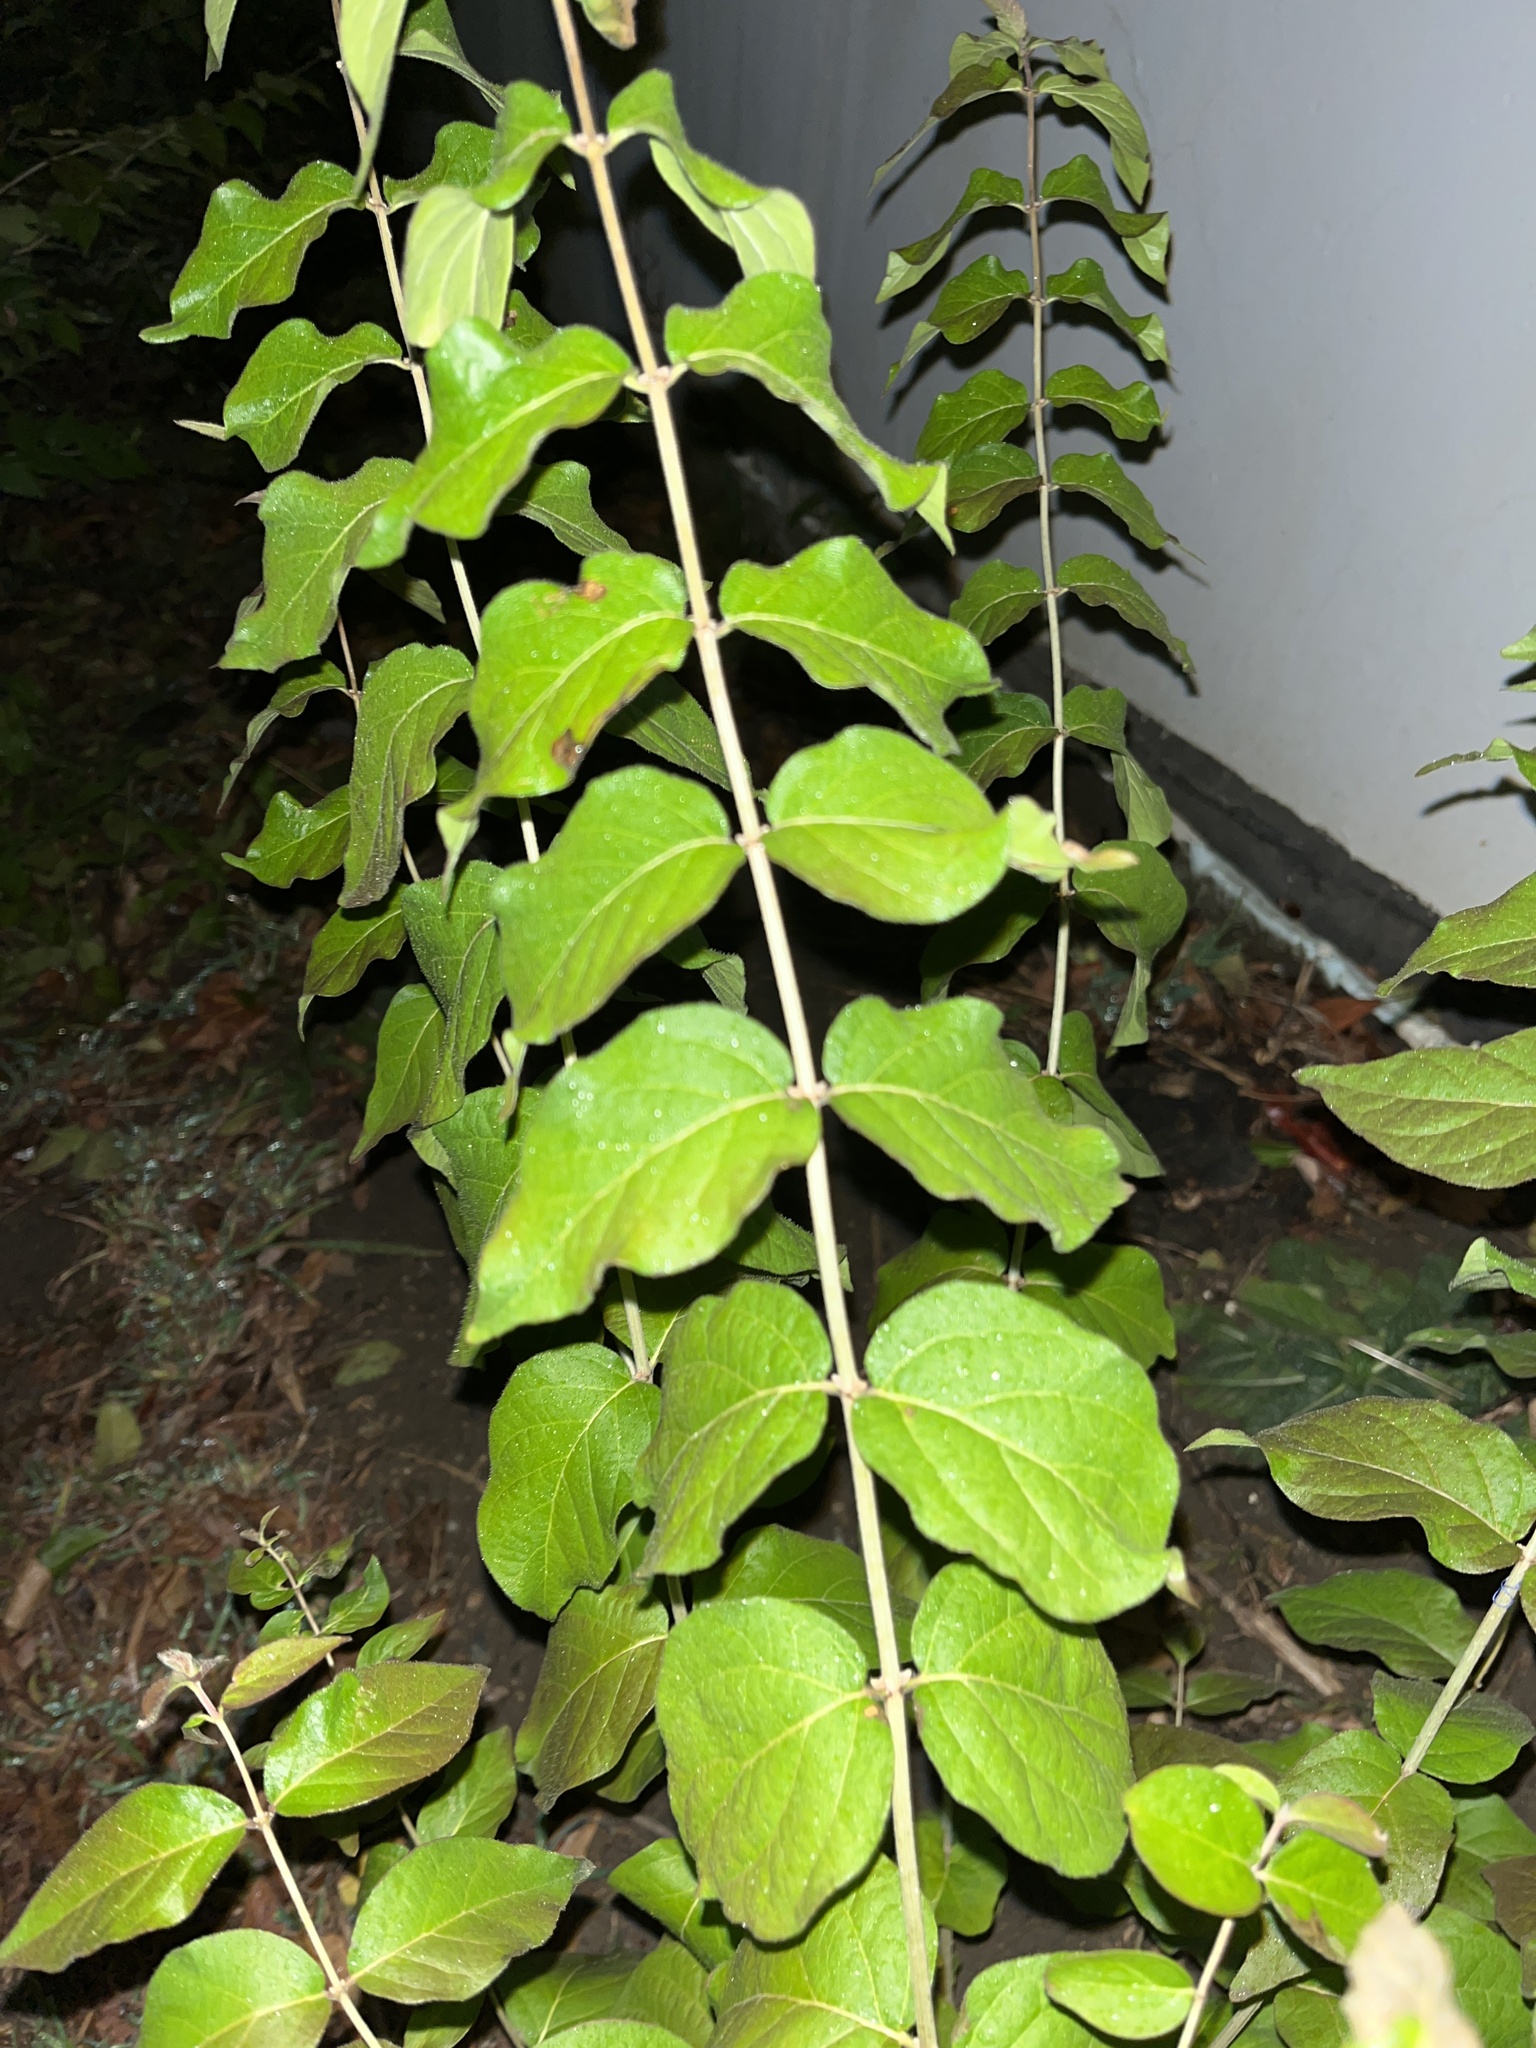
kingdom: Plantae
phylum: Tracheophyta
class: Magnoliopsida
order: Dipsacales
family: Caprifoliaceae
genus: Lonicera
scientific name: Lonicera maackii
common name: Amur honeysuckle
